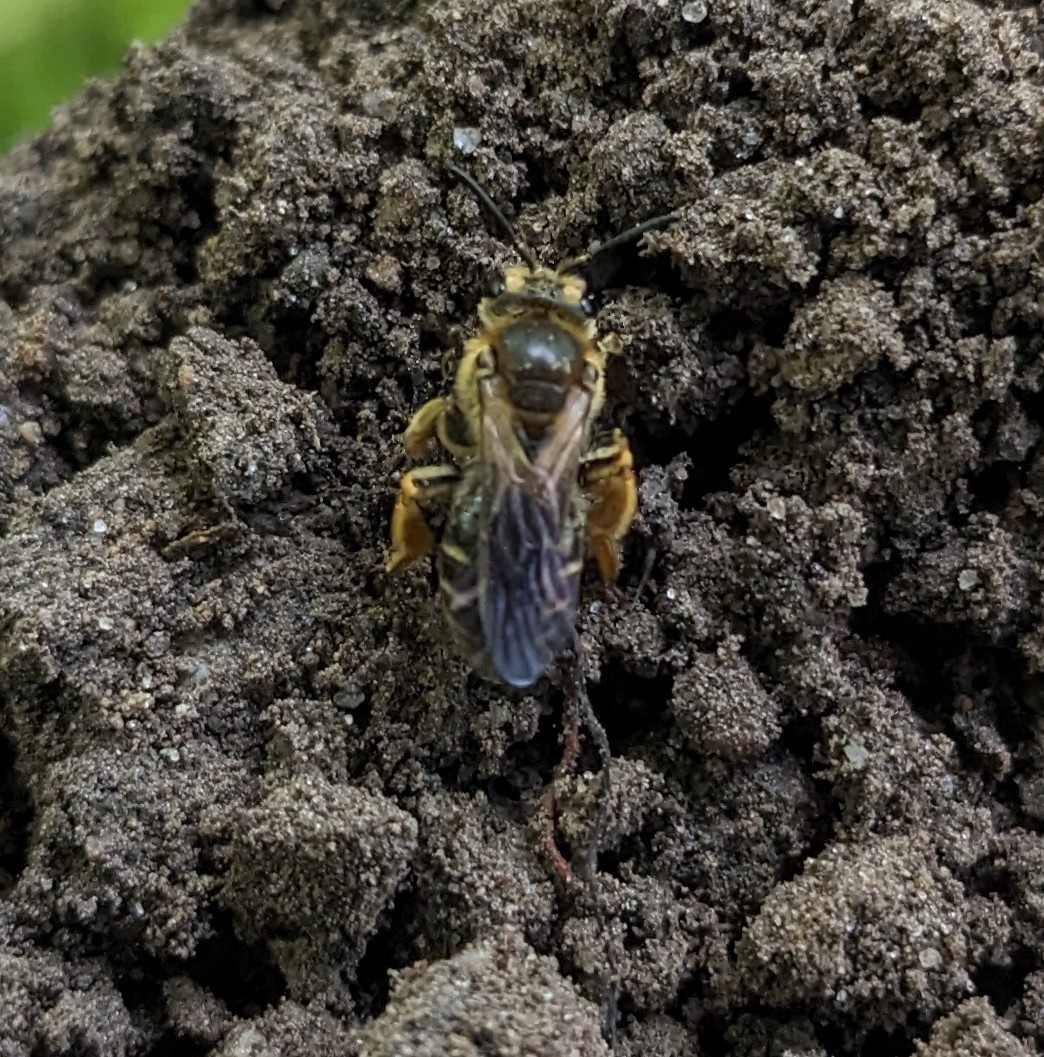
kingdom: Animalia
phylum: Arthropoda
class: Insecta
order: Hymenoptera
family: Andrenidae
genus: Andrena
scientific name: Andrena wilkella
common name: Wilke's mining bee
